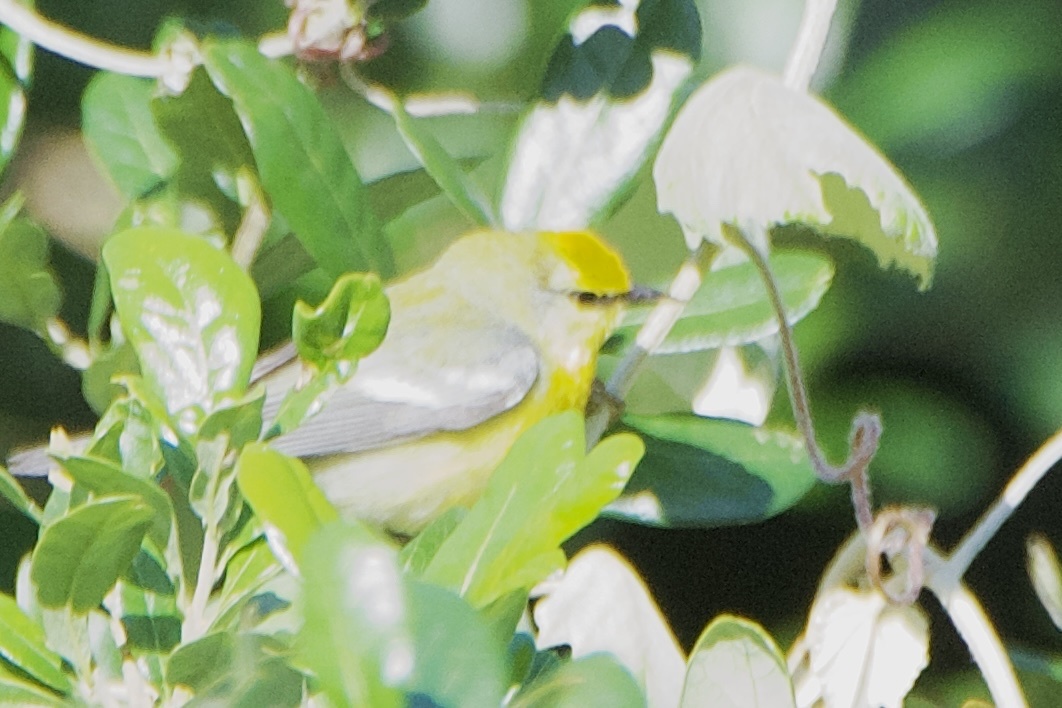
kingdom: Animalia
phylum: Chordata
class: Aves
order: Passeriformes
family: Parulidae
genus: Vermivora
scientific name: Vermivora cyanoptera
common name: Blue-winged warbler
